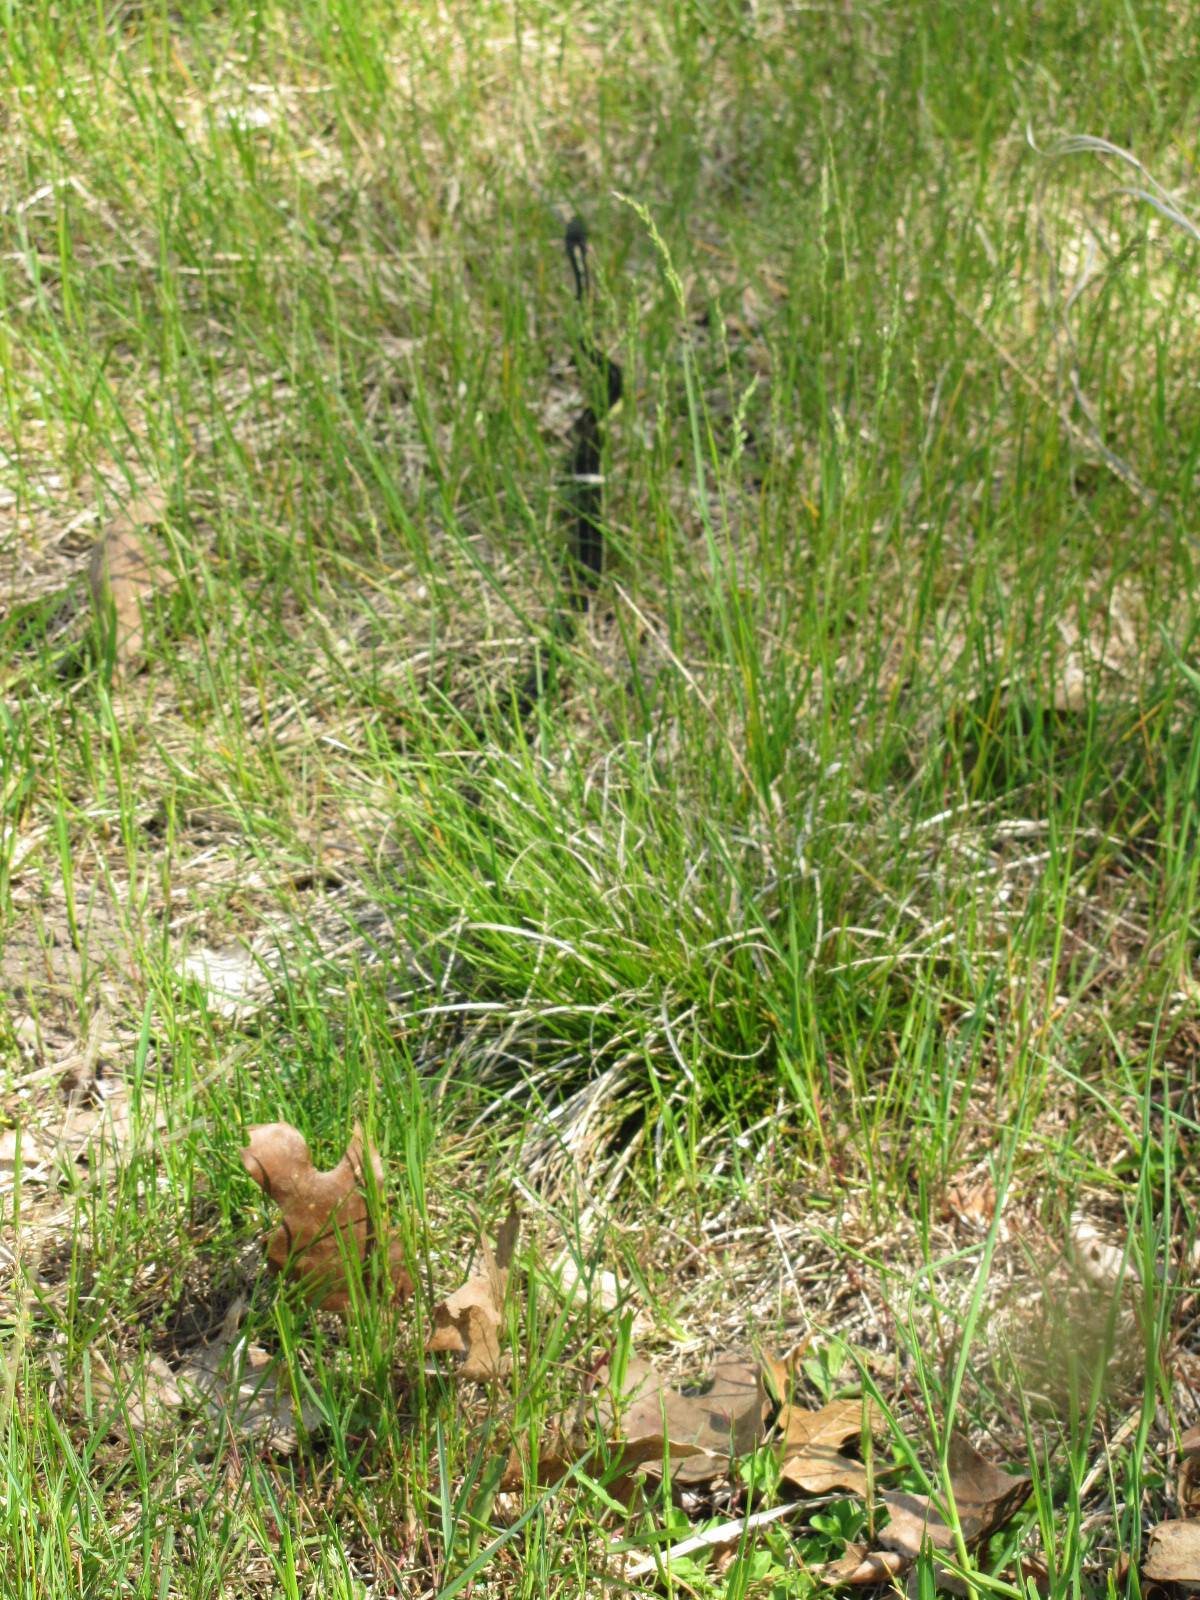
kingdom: Animalia
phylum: Chordata
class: Squamata
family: Colubridae
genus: Thamnophis
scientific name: Thamnophis sirtalis
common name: Common garter snake
